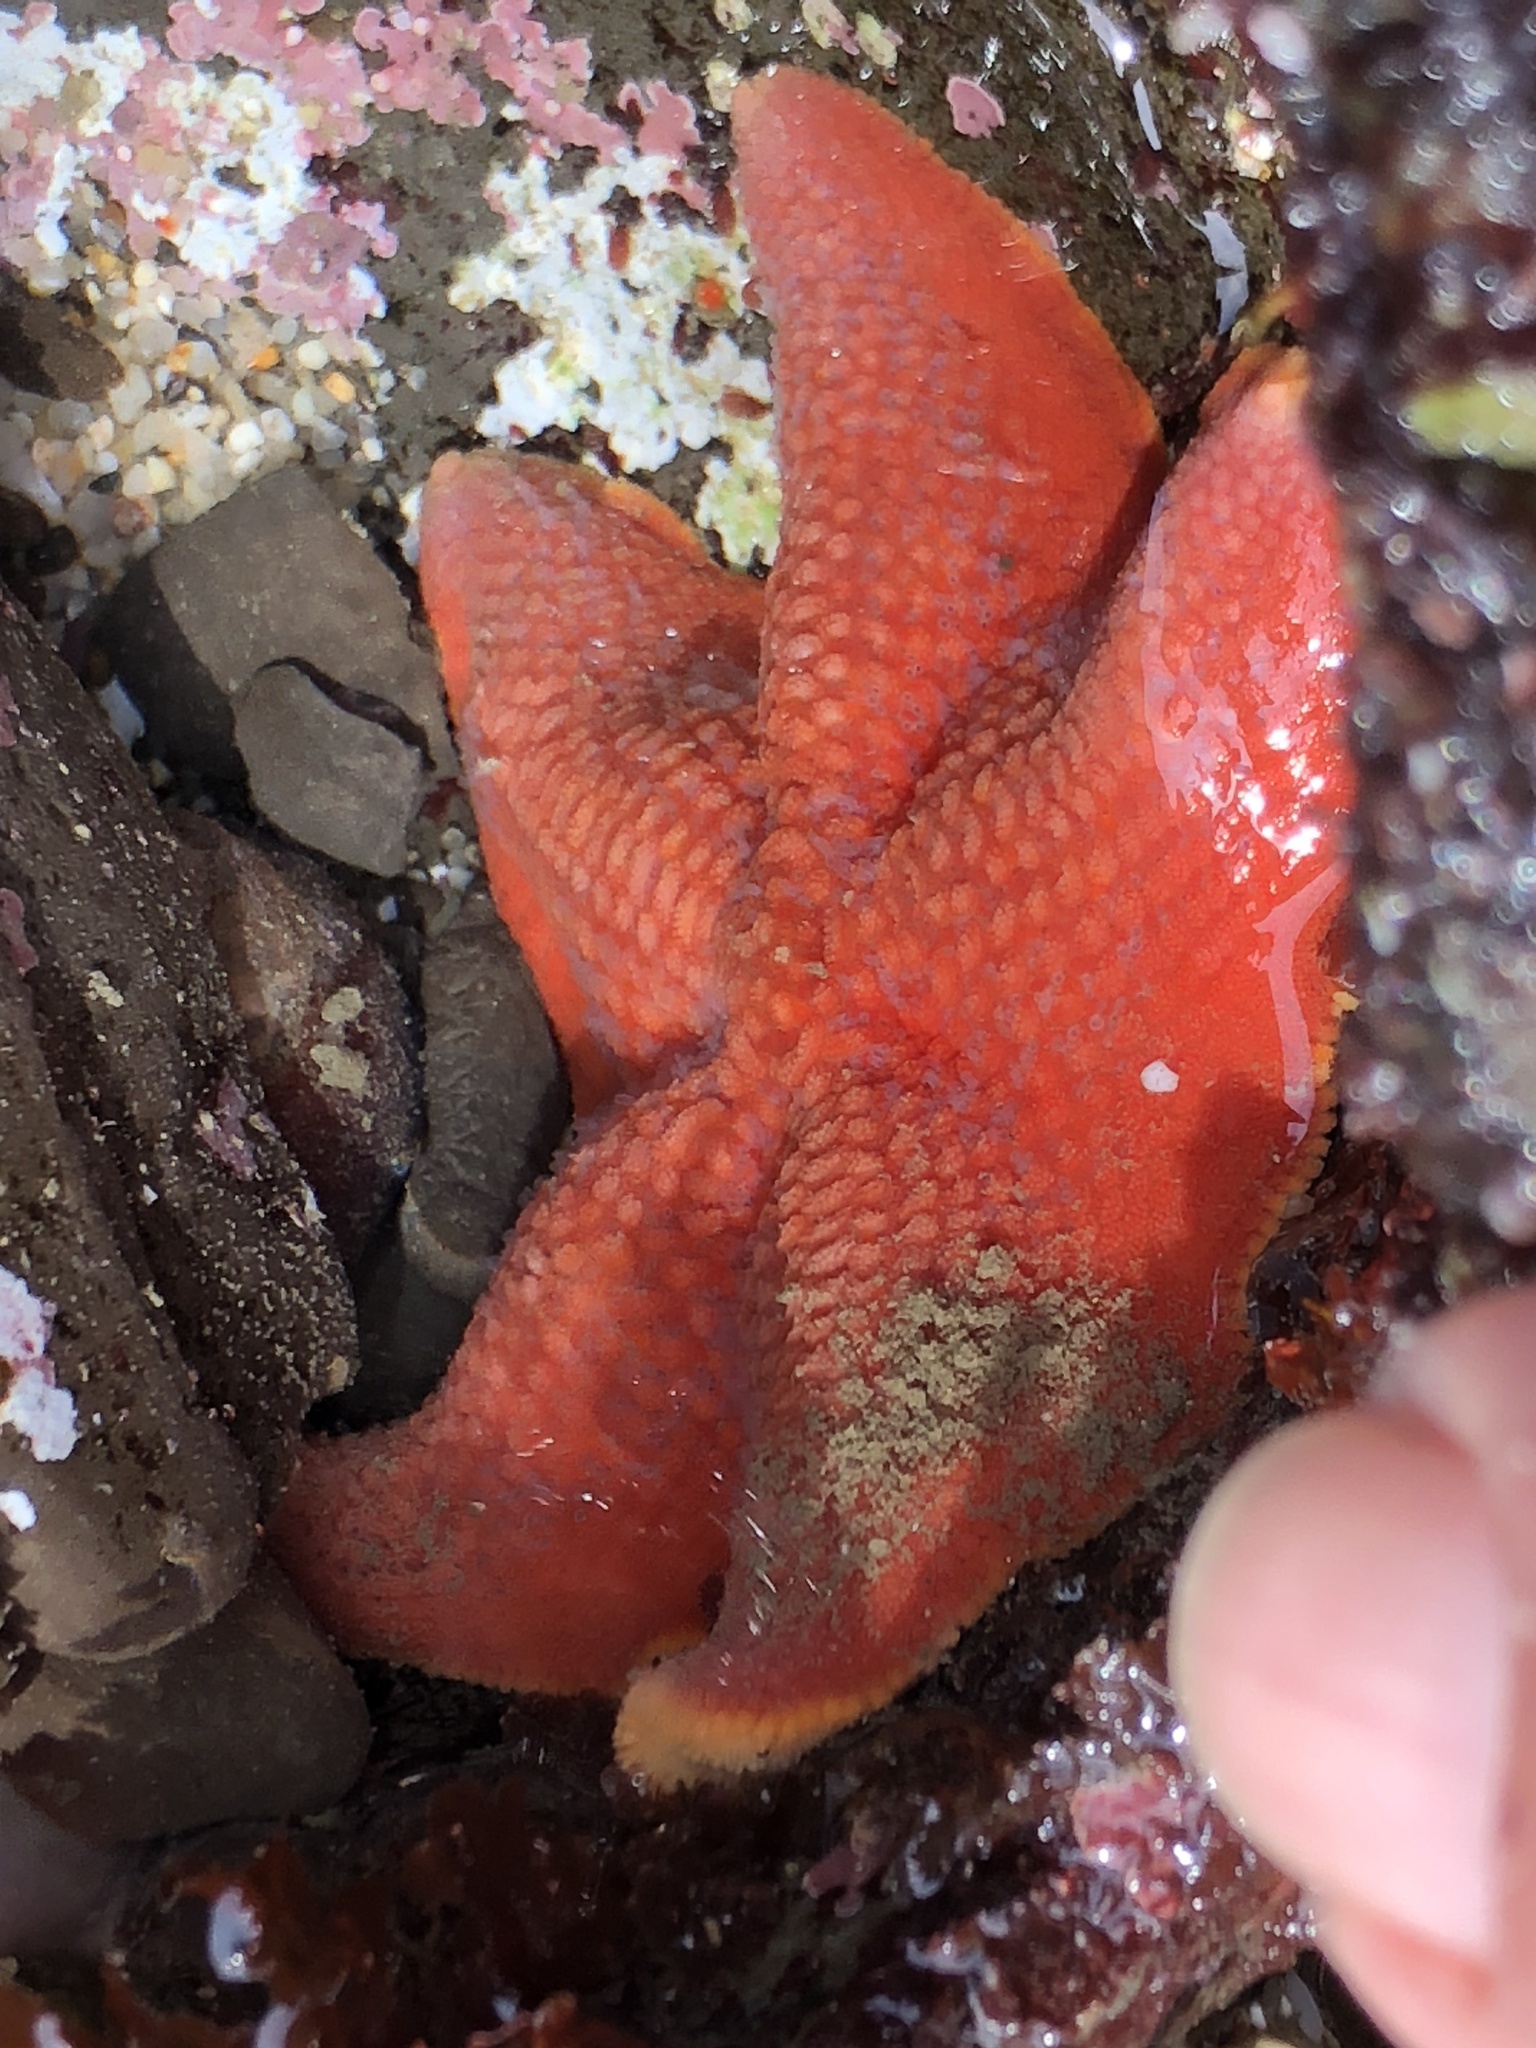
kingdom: Animalia
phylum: Echinodermata
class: Asteroidea
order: Valvatida
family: Asterinidae
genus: Patiria
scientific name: Patiria miniata
